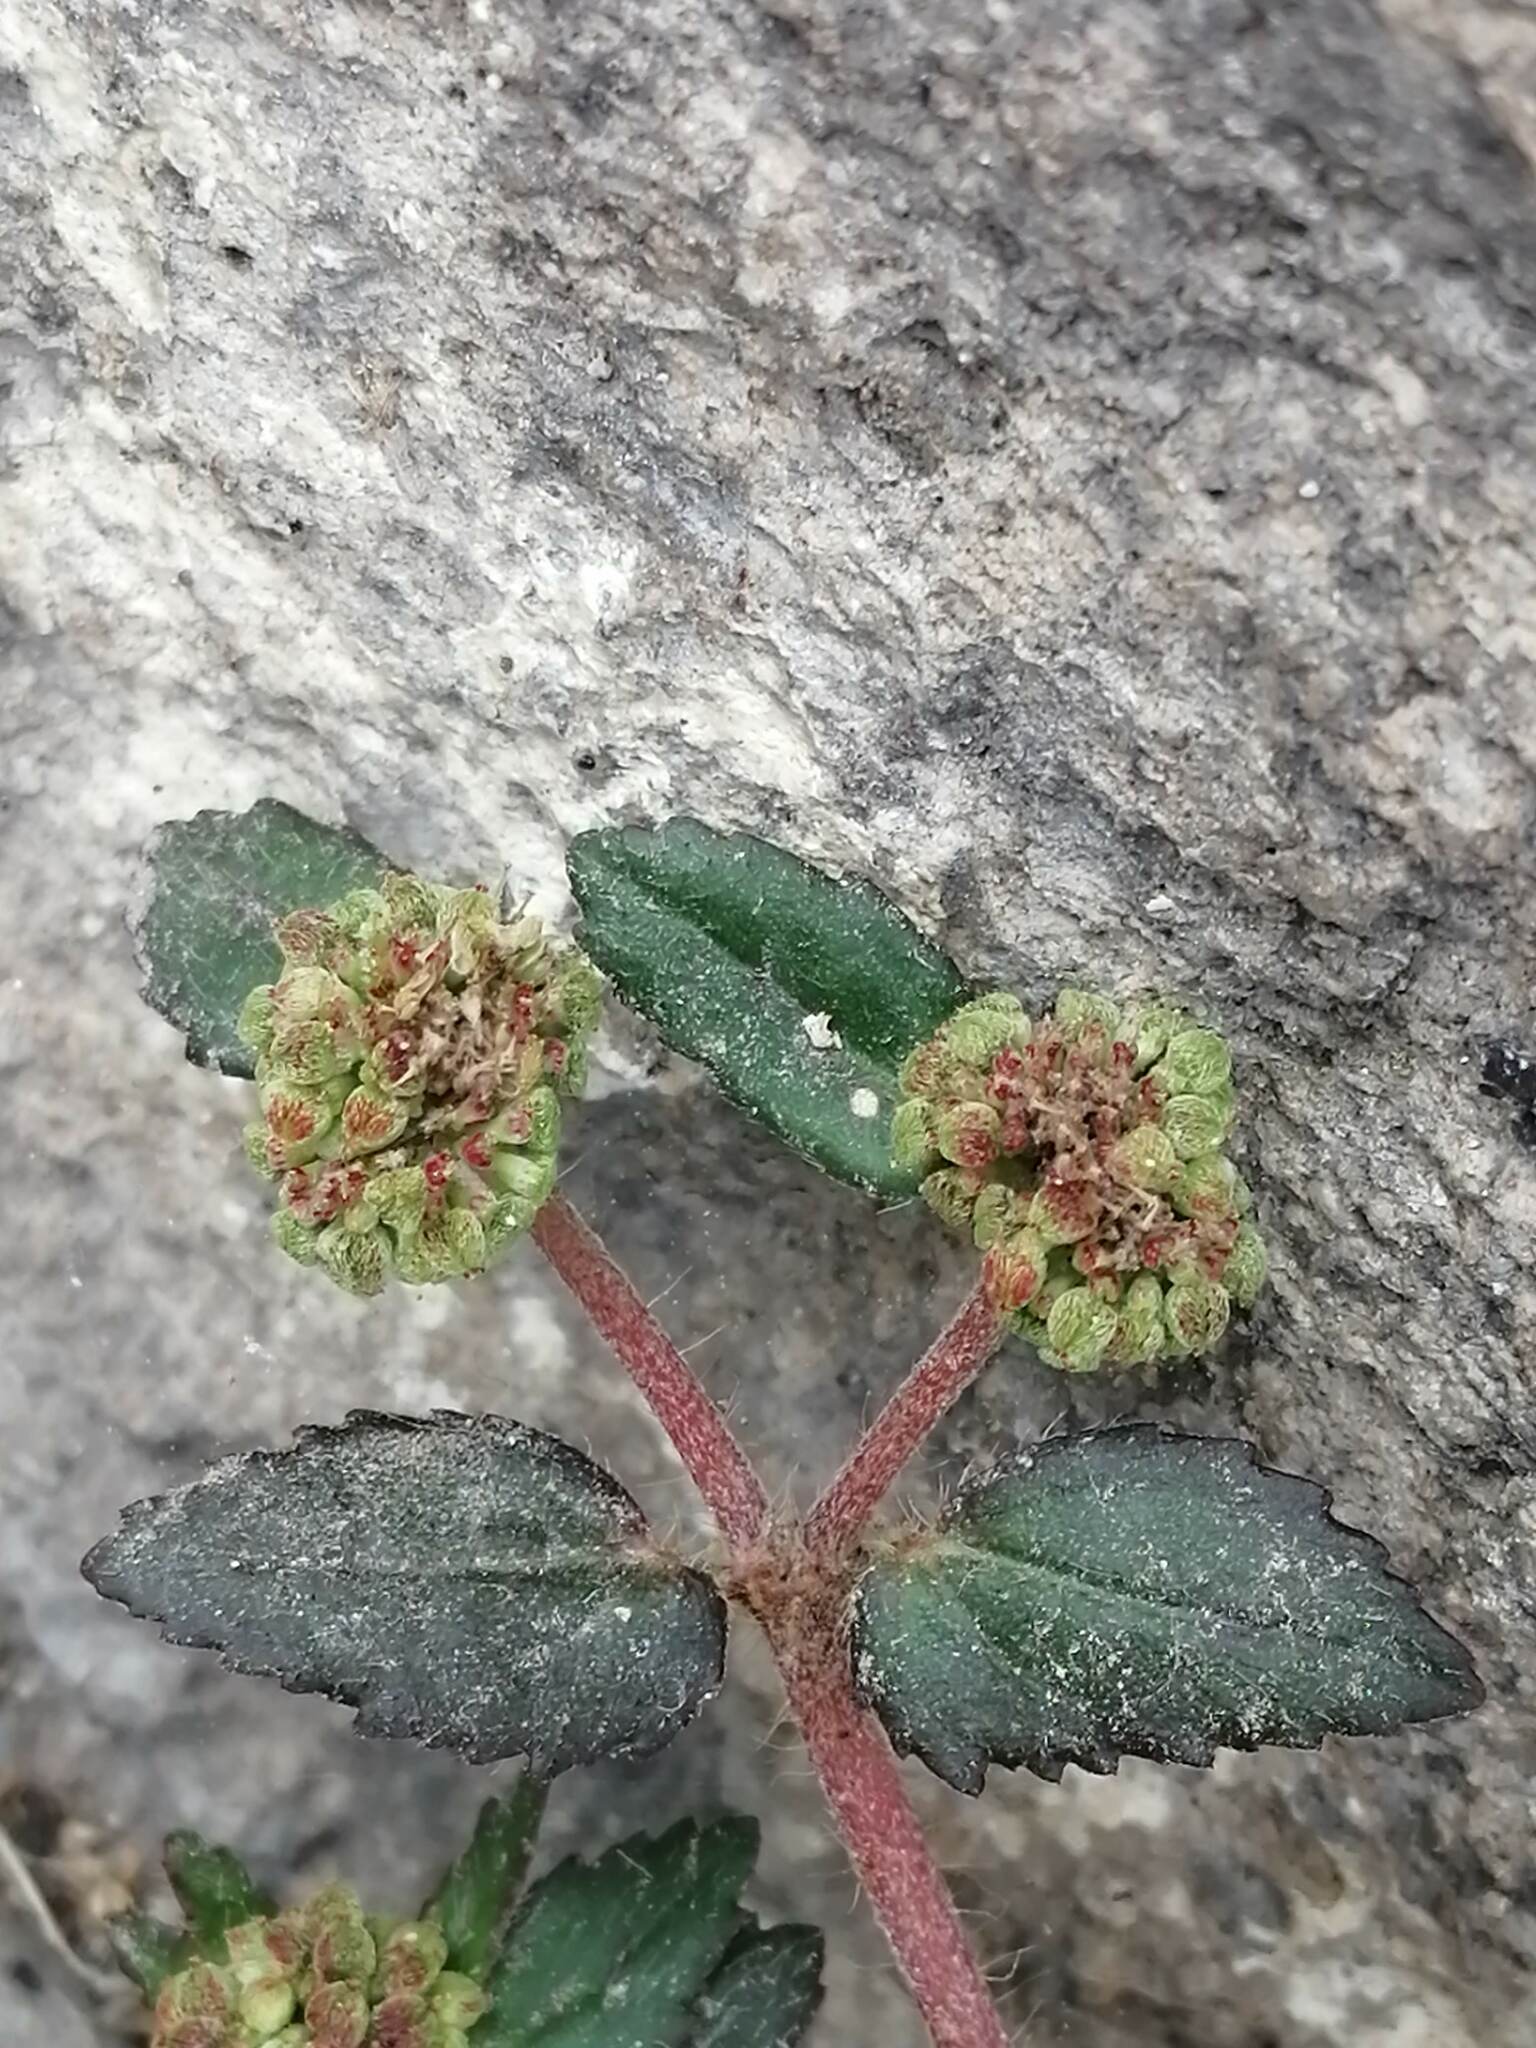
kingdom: Plantae
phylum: Tracheophyta
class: Magnoliopsida
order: Malpighiales
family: Euphorbiaceae
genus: Euphorbia
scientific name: Euphorbia ophthalmica
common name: Florida hammock sandmat
